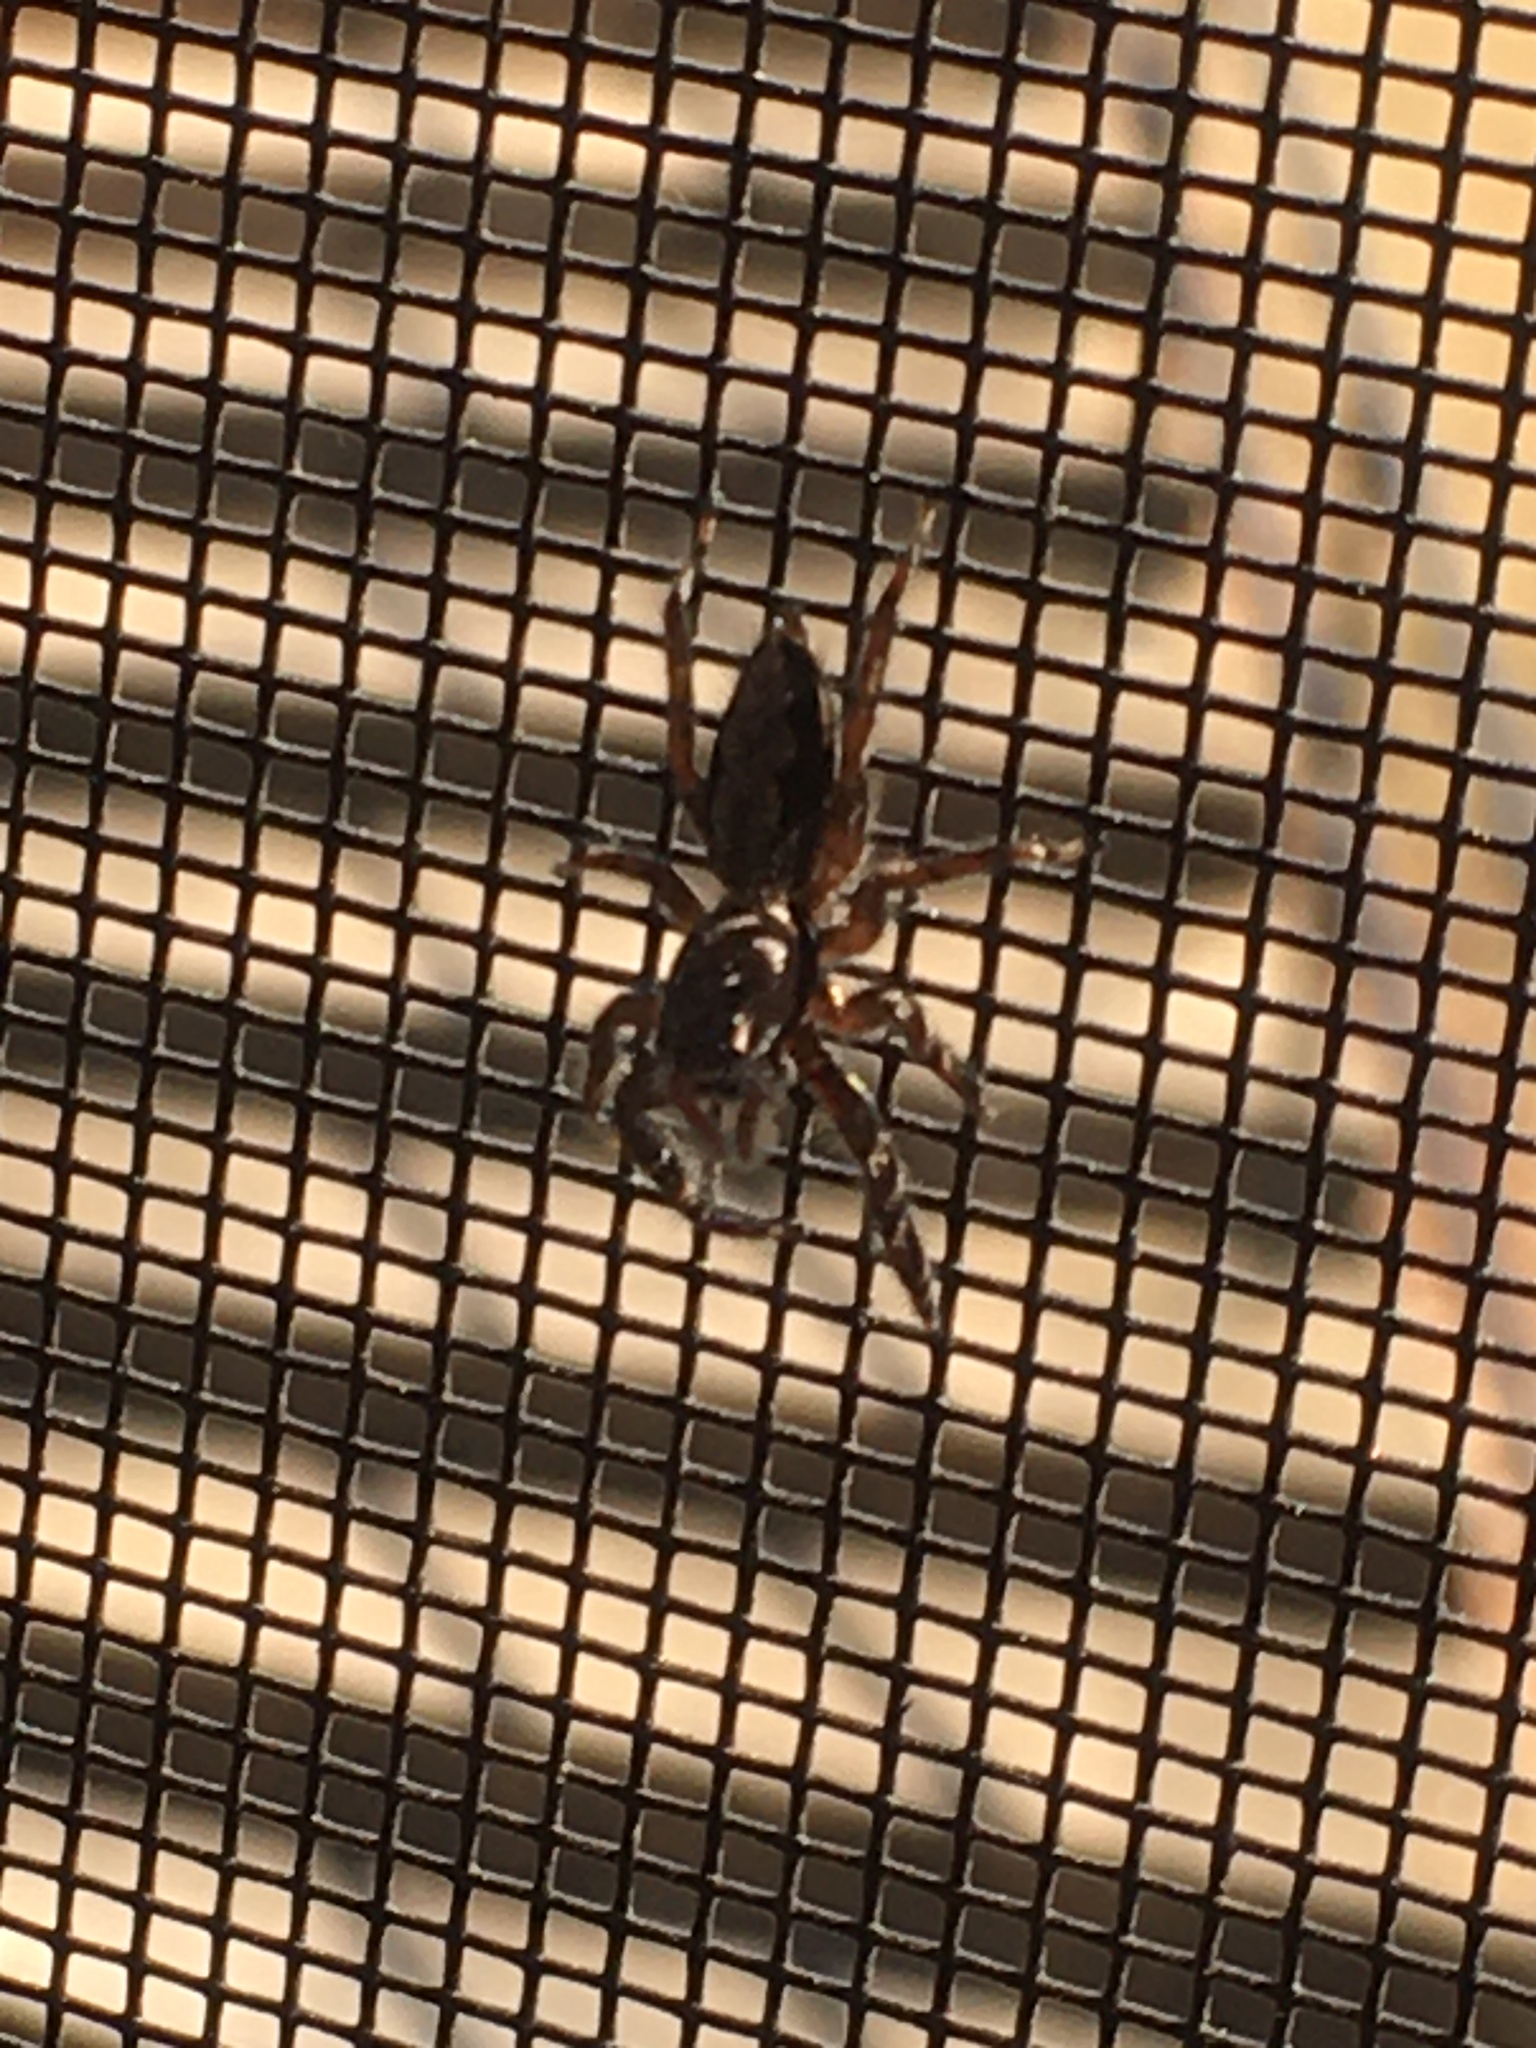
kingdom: Animalia
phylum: Arthropoda
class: Arachnida
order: Araneae
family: Salticidae
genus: Platycryptus
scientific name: Platycryptus undatus
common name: Tan jumping spider
